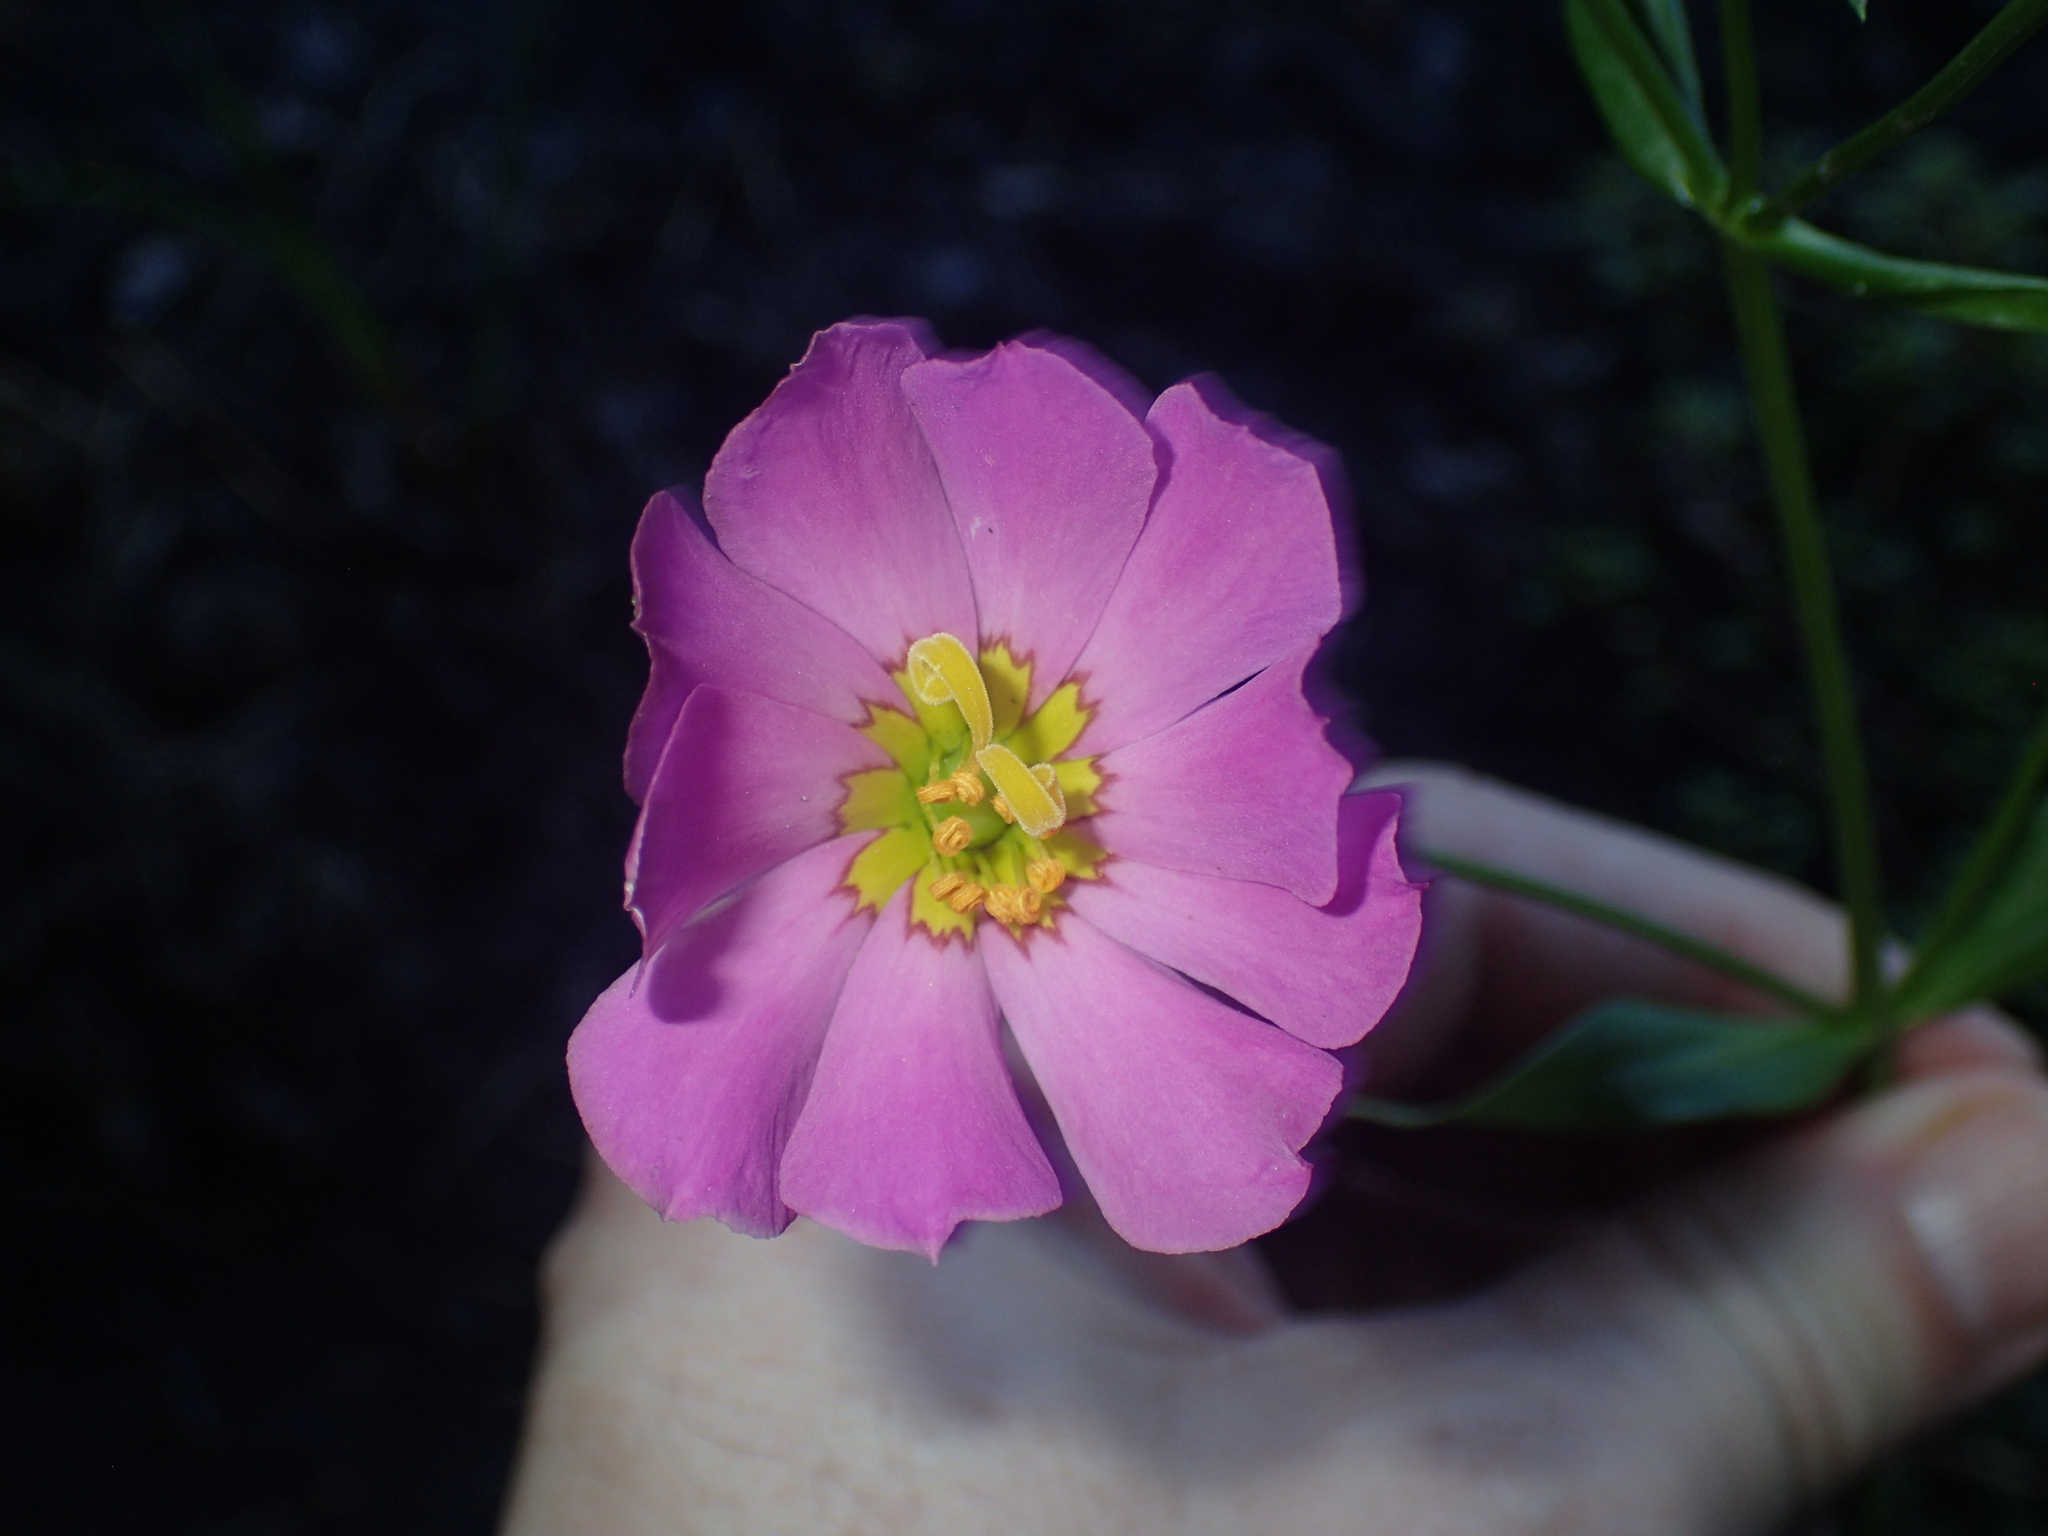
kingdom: Plantae
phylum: Tracheophyta
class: Magnoliopsida
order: Gentianales
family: Gentianaceae
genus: Sabatia
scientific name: Sabatia kennedyana
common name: Plymouth gentian
